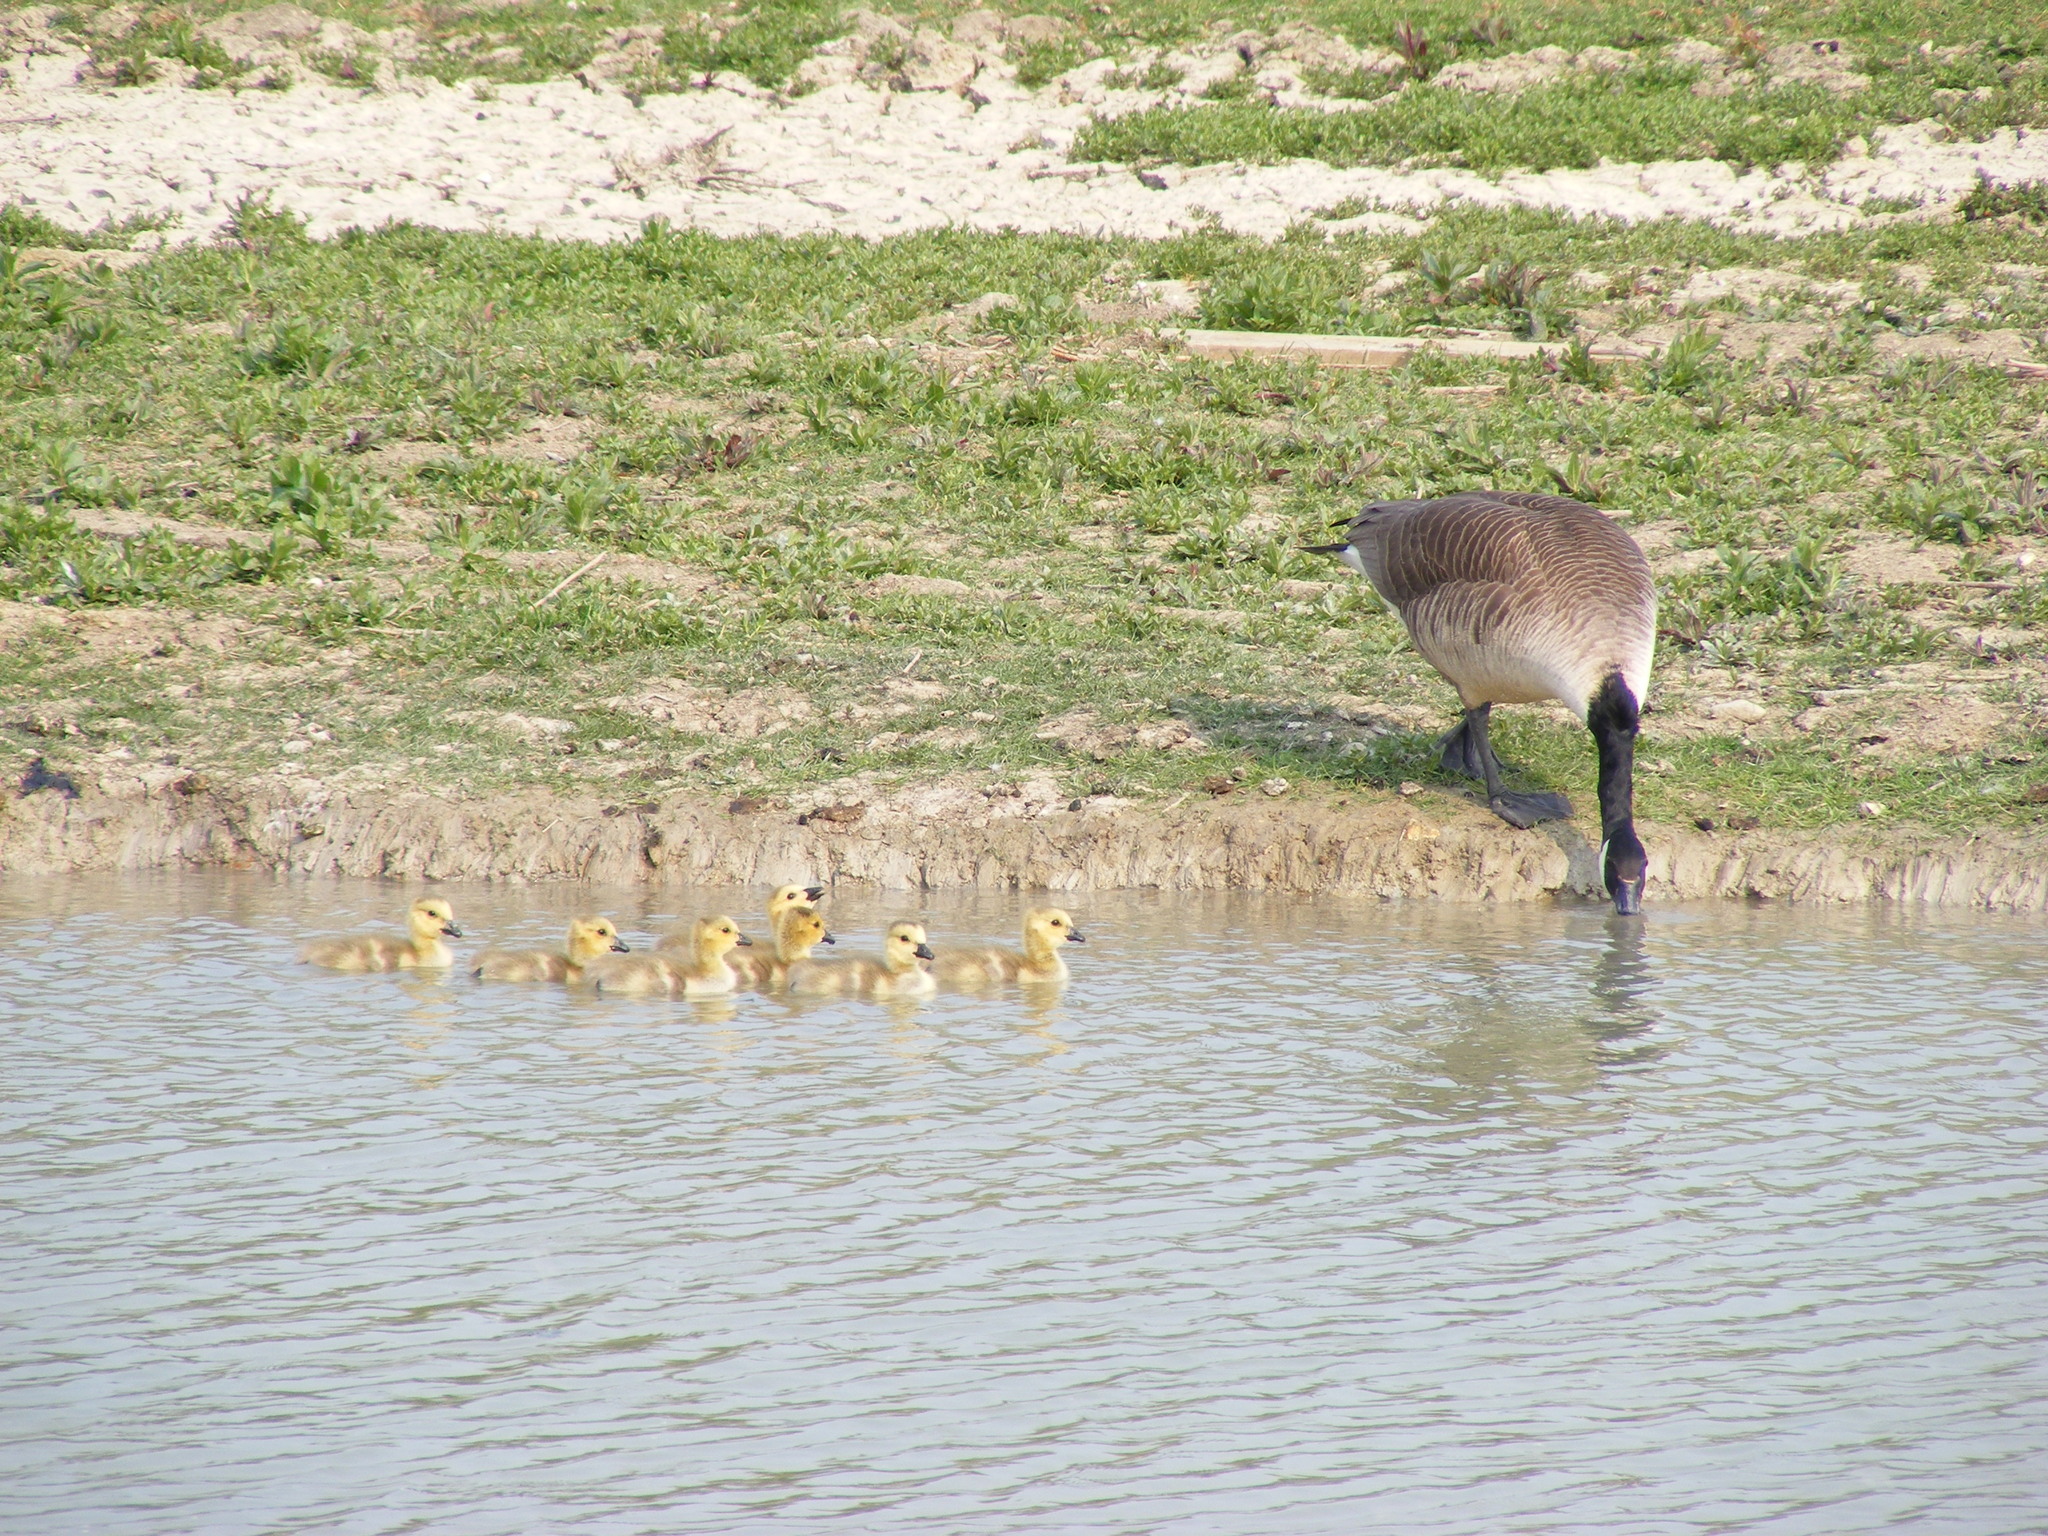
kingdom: Animalia
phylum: Chordata
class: Aves
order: Anseriformes
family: Anatidae
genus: Branta
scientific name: Branta canadensis
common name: Canada goose
